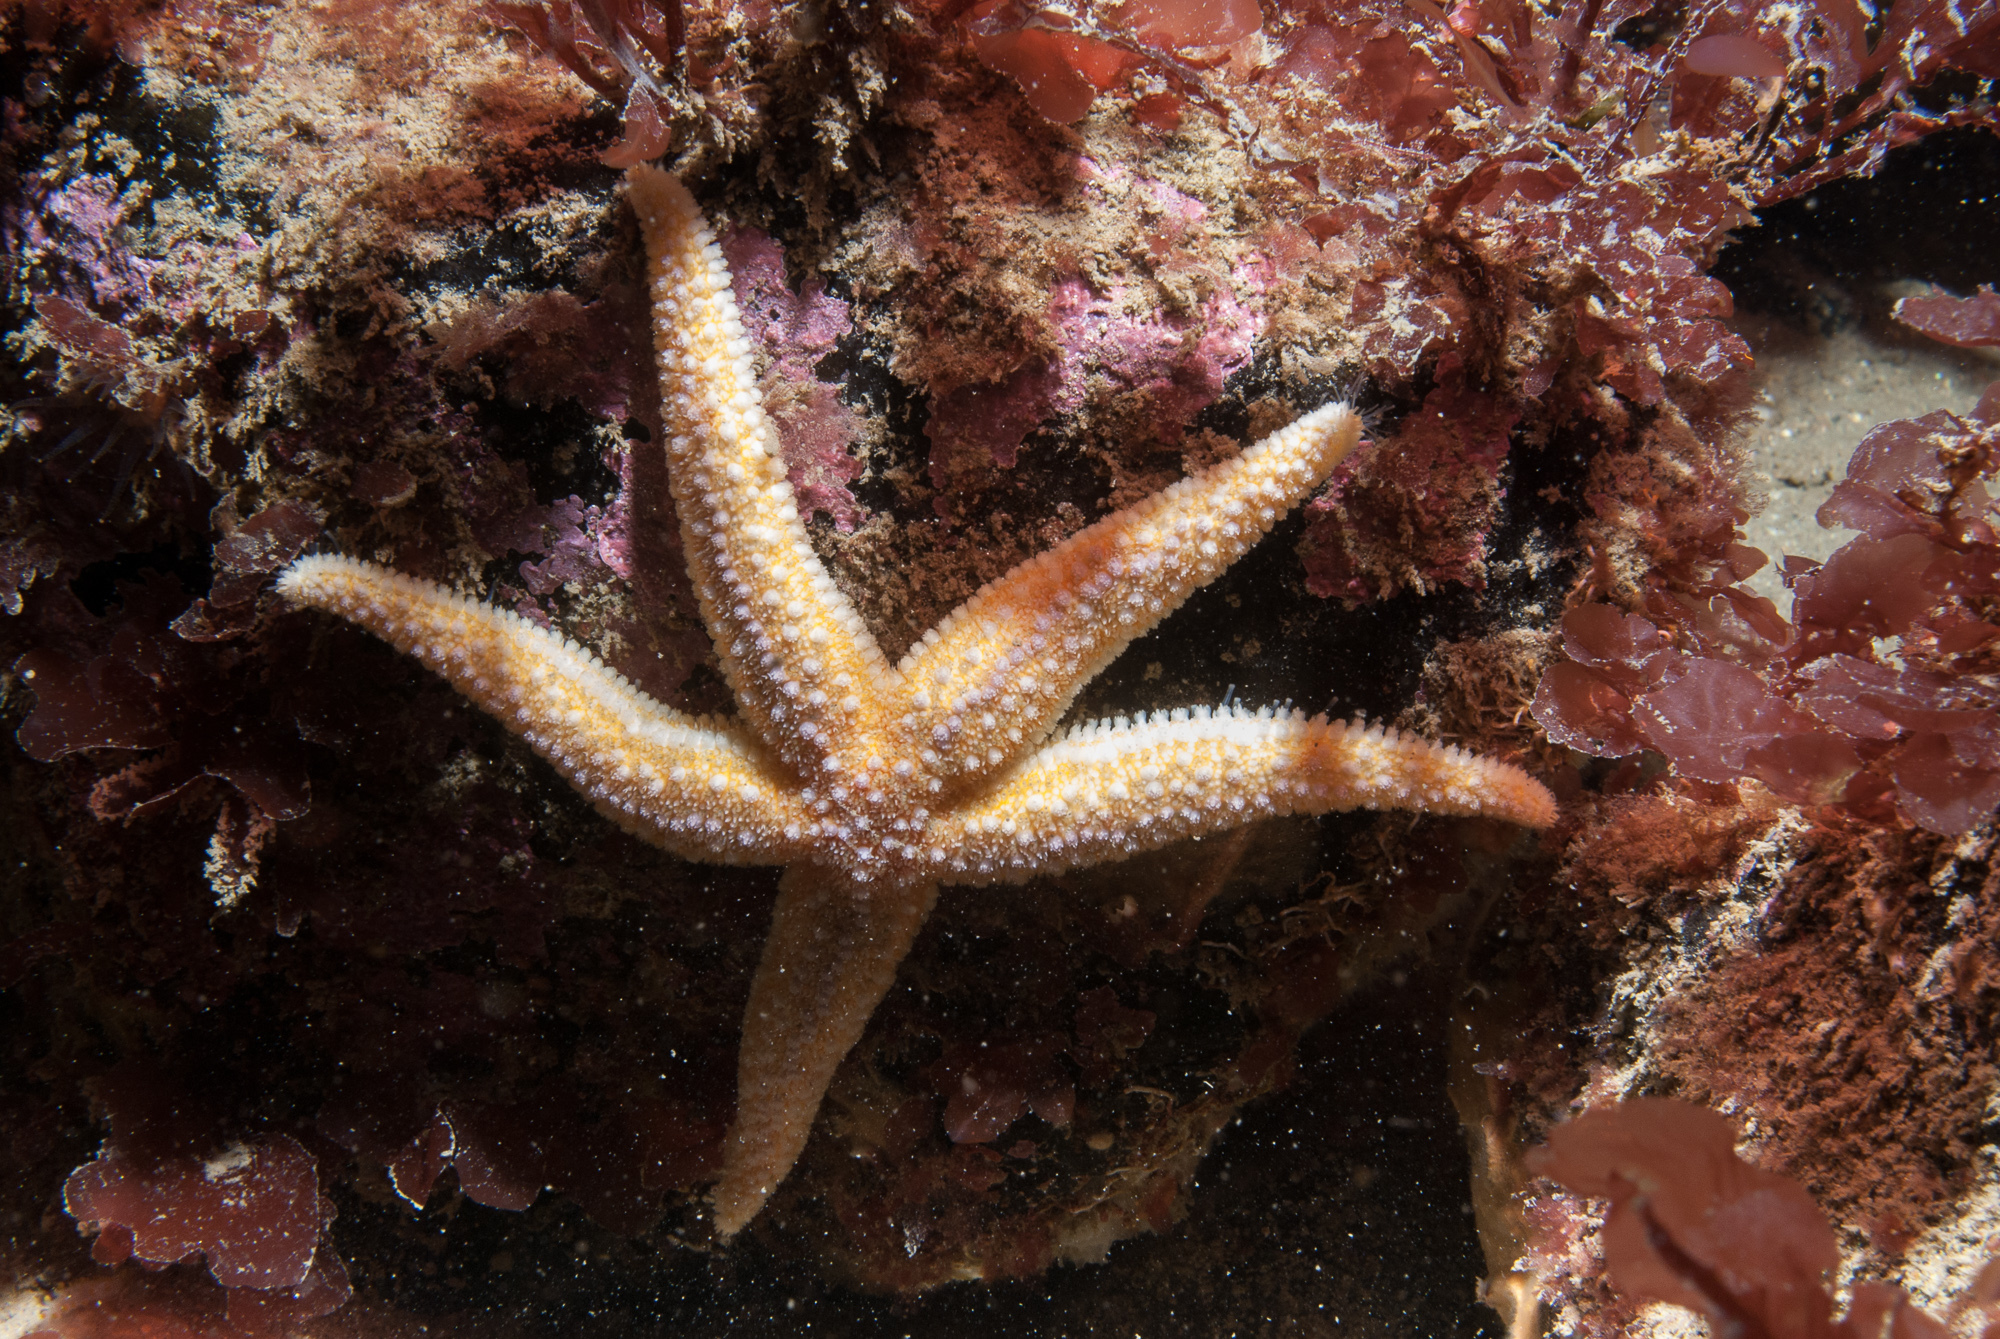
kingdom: Animalia
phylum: Echinodermata
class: Asteroidea
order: Forcipulatida
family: Asteriidae
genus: Asterias
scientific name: Asterias rubens
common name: Common starfish
